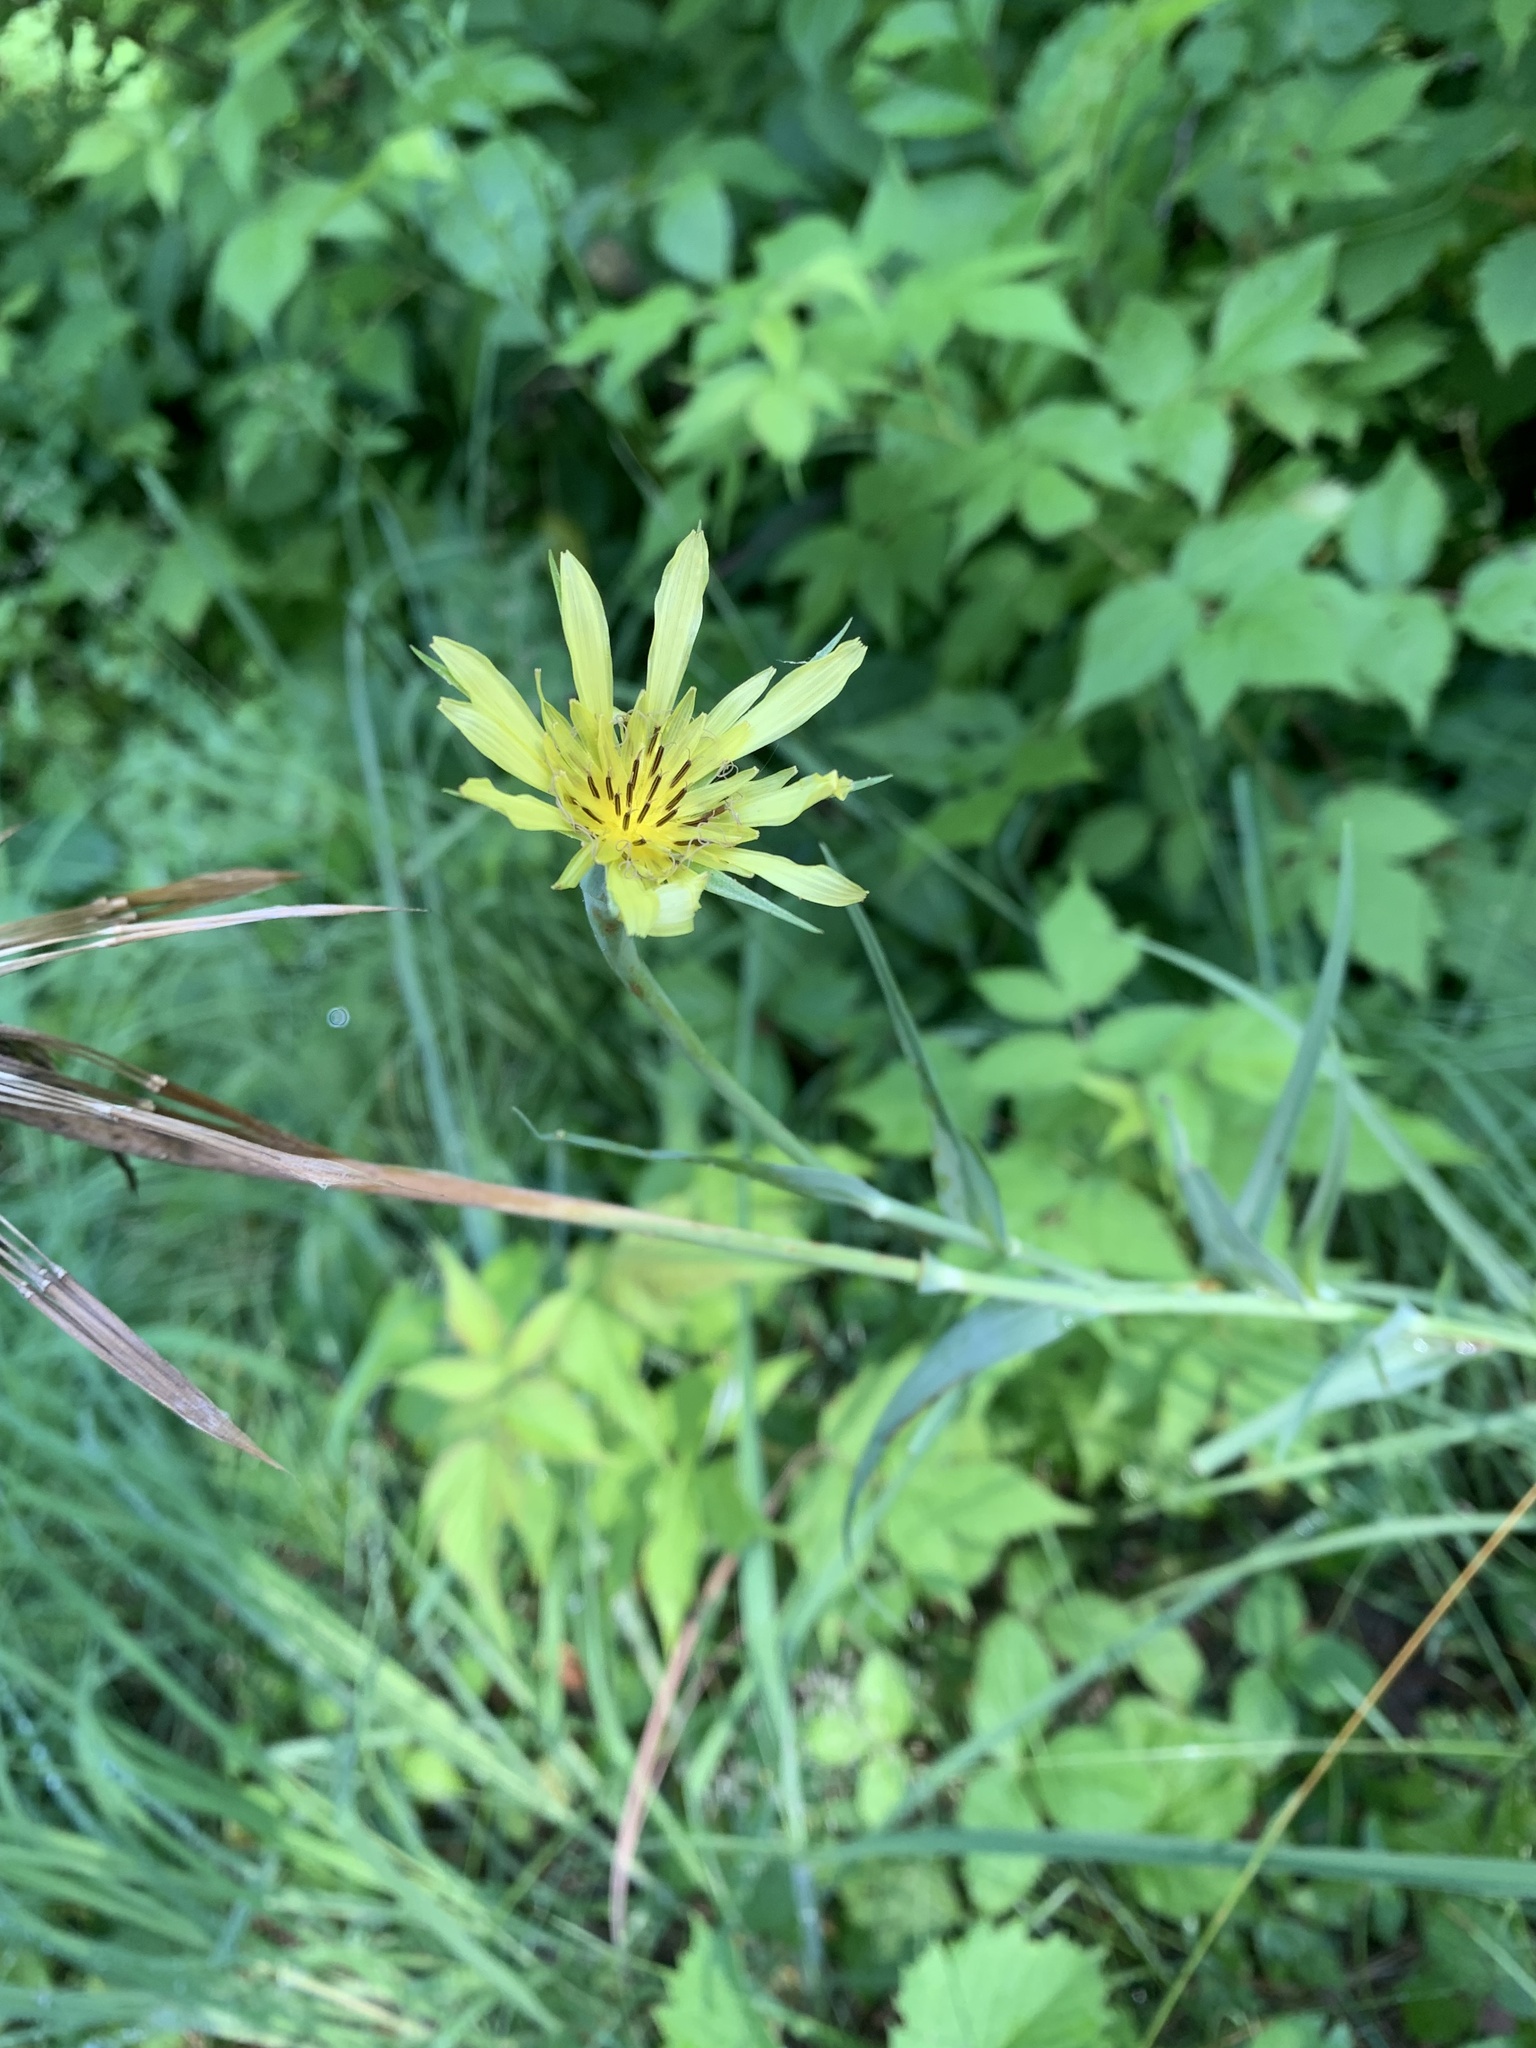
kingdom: Plantae
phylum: Tracheophyta
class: Magnoliopsida
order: Asterales
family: Asteraceae
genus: Tragopogon
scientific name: Tragopogon dubius
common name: Yellow salsify
